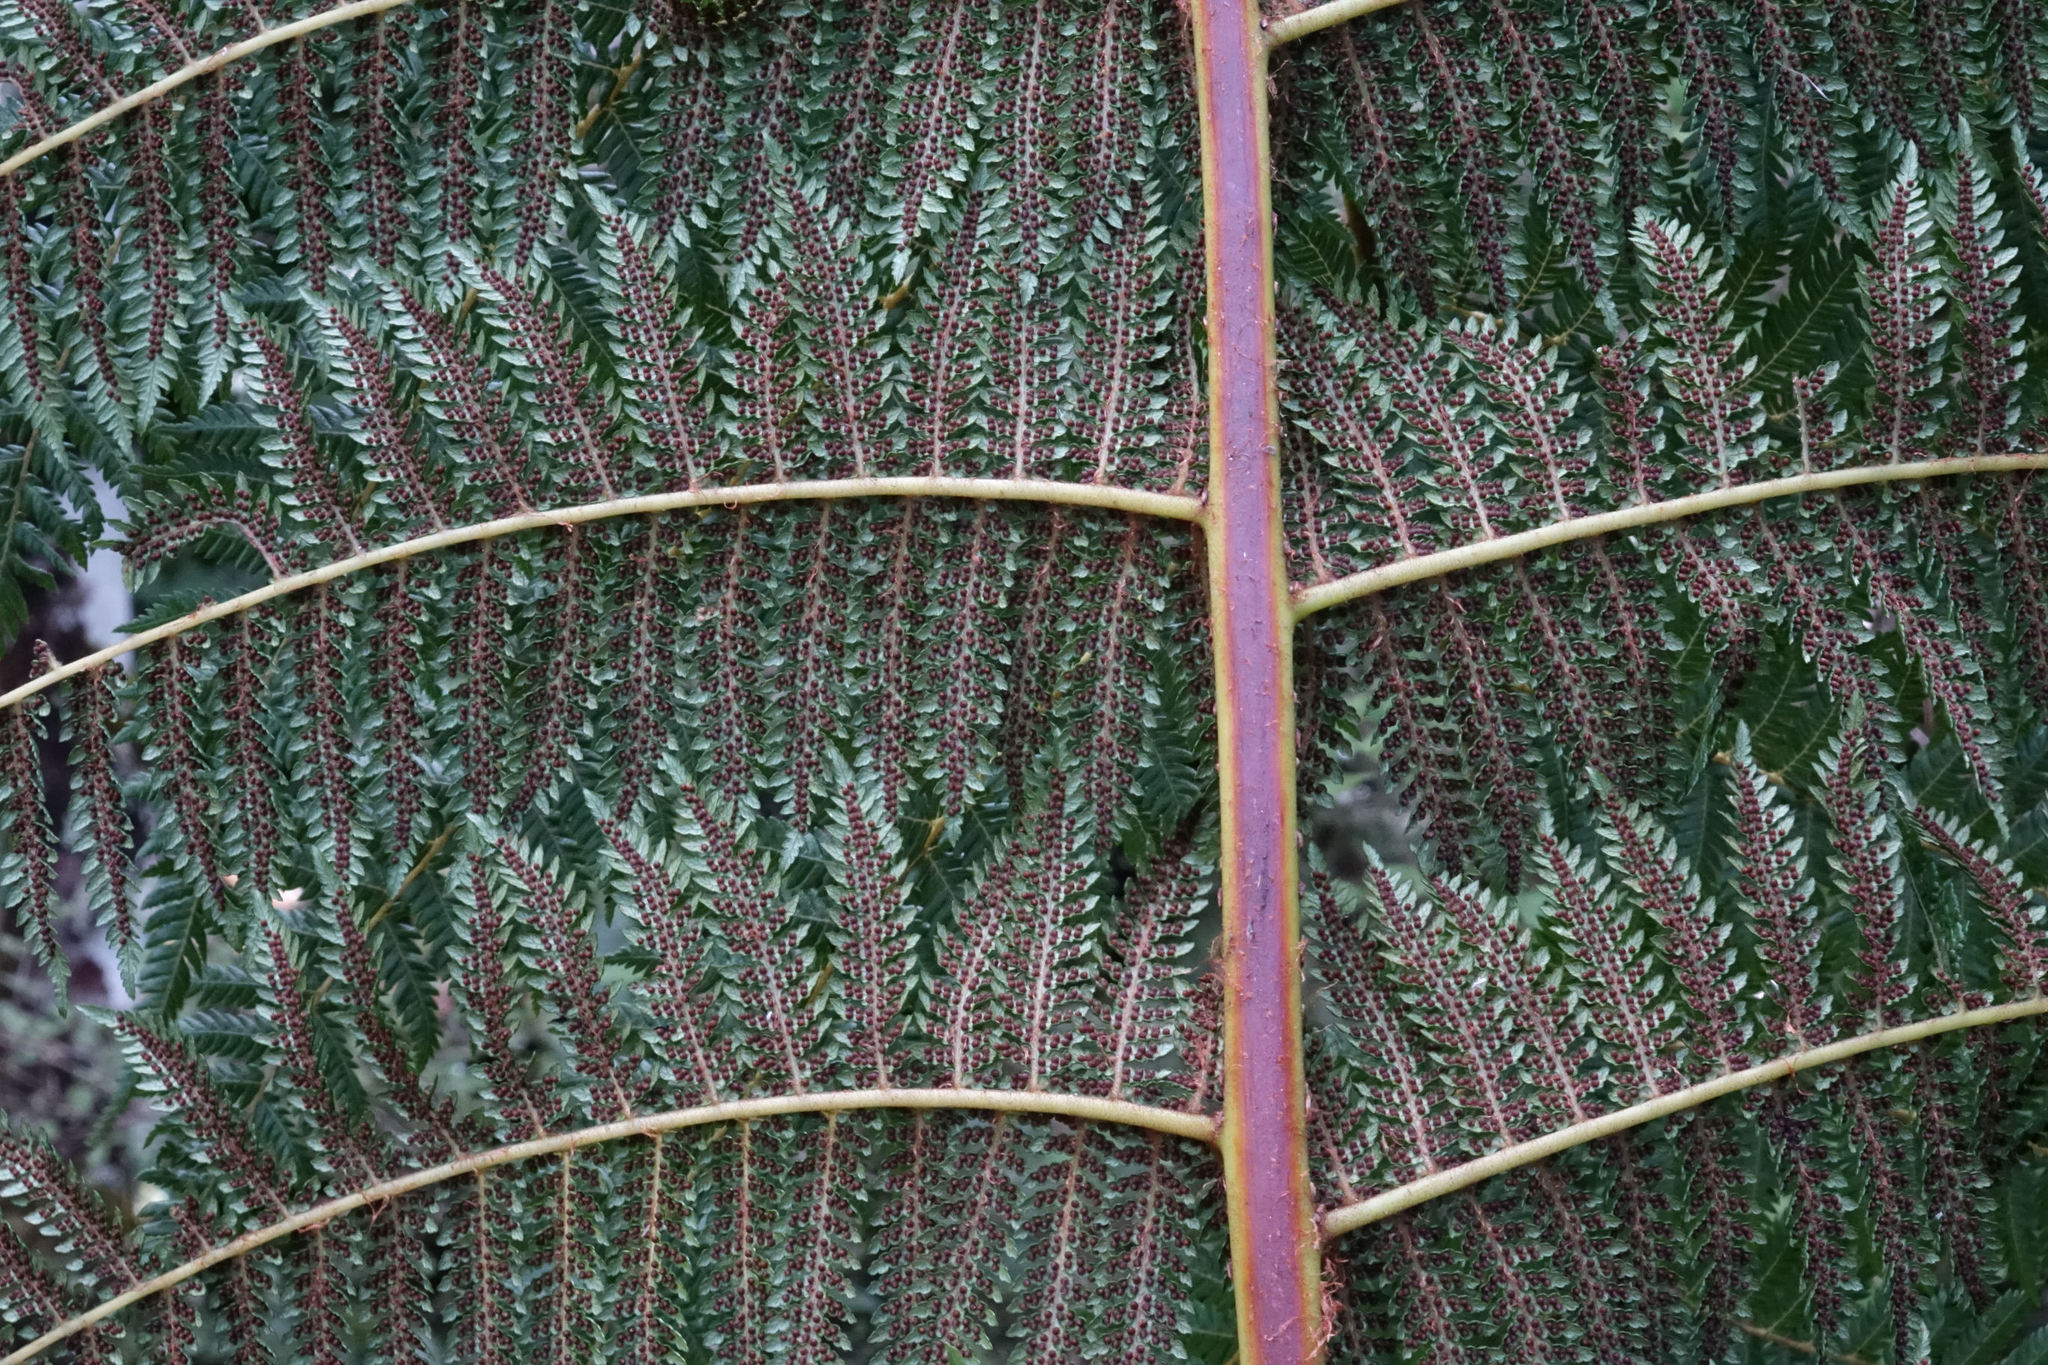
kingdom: Plantae
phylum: Tracheophyta
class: Polypodiopsida
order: Cyatheales
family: Cyatheaceae
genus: Alsophila
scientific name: Alsophila smithii
